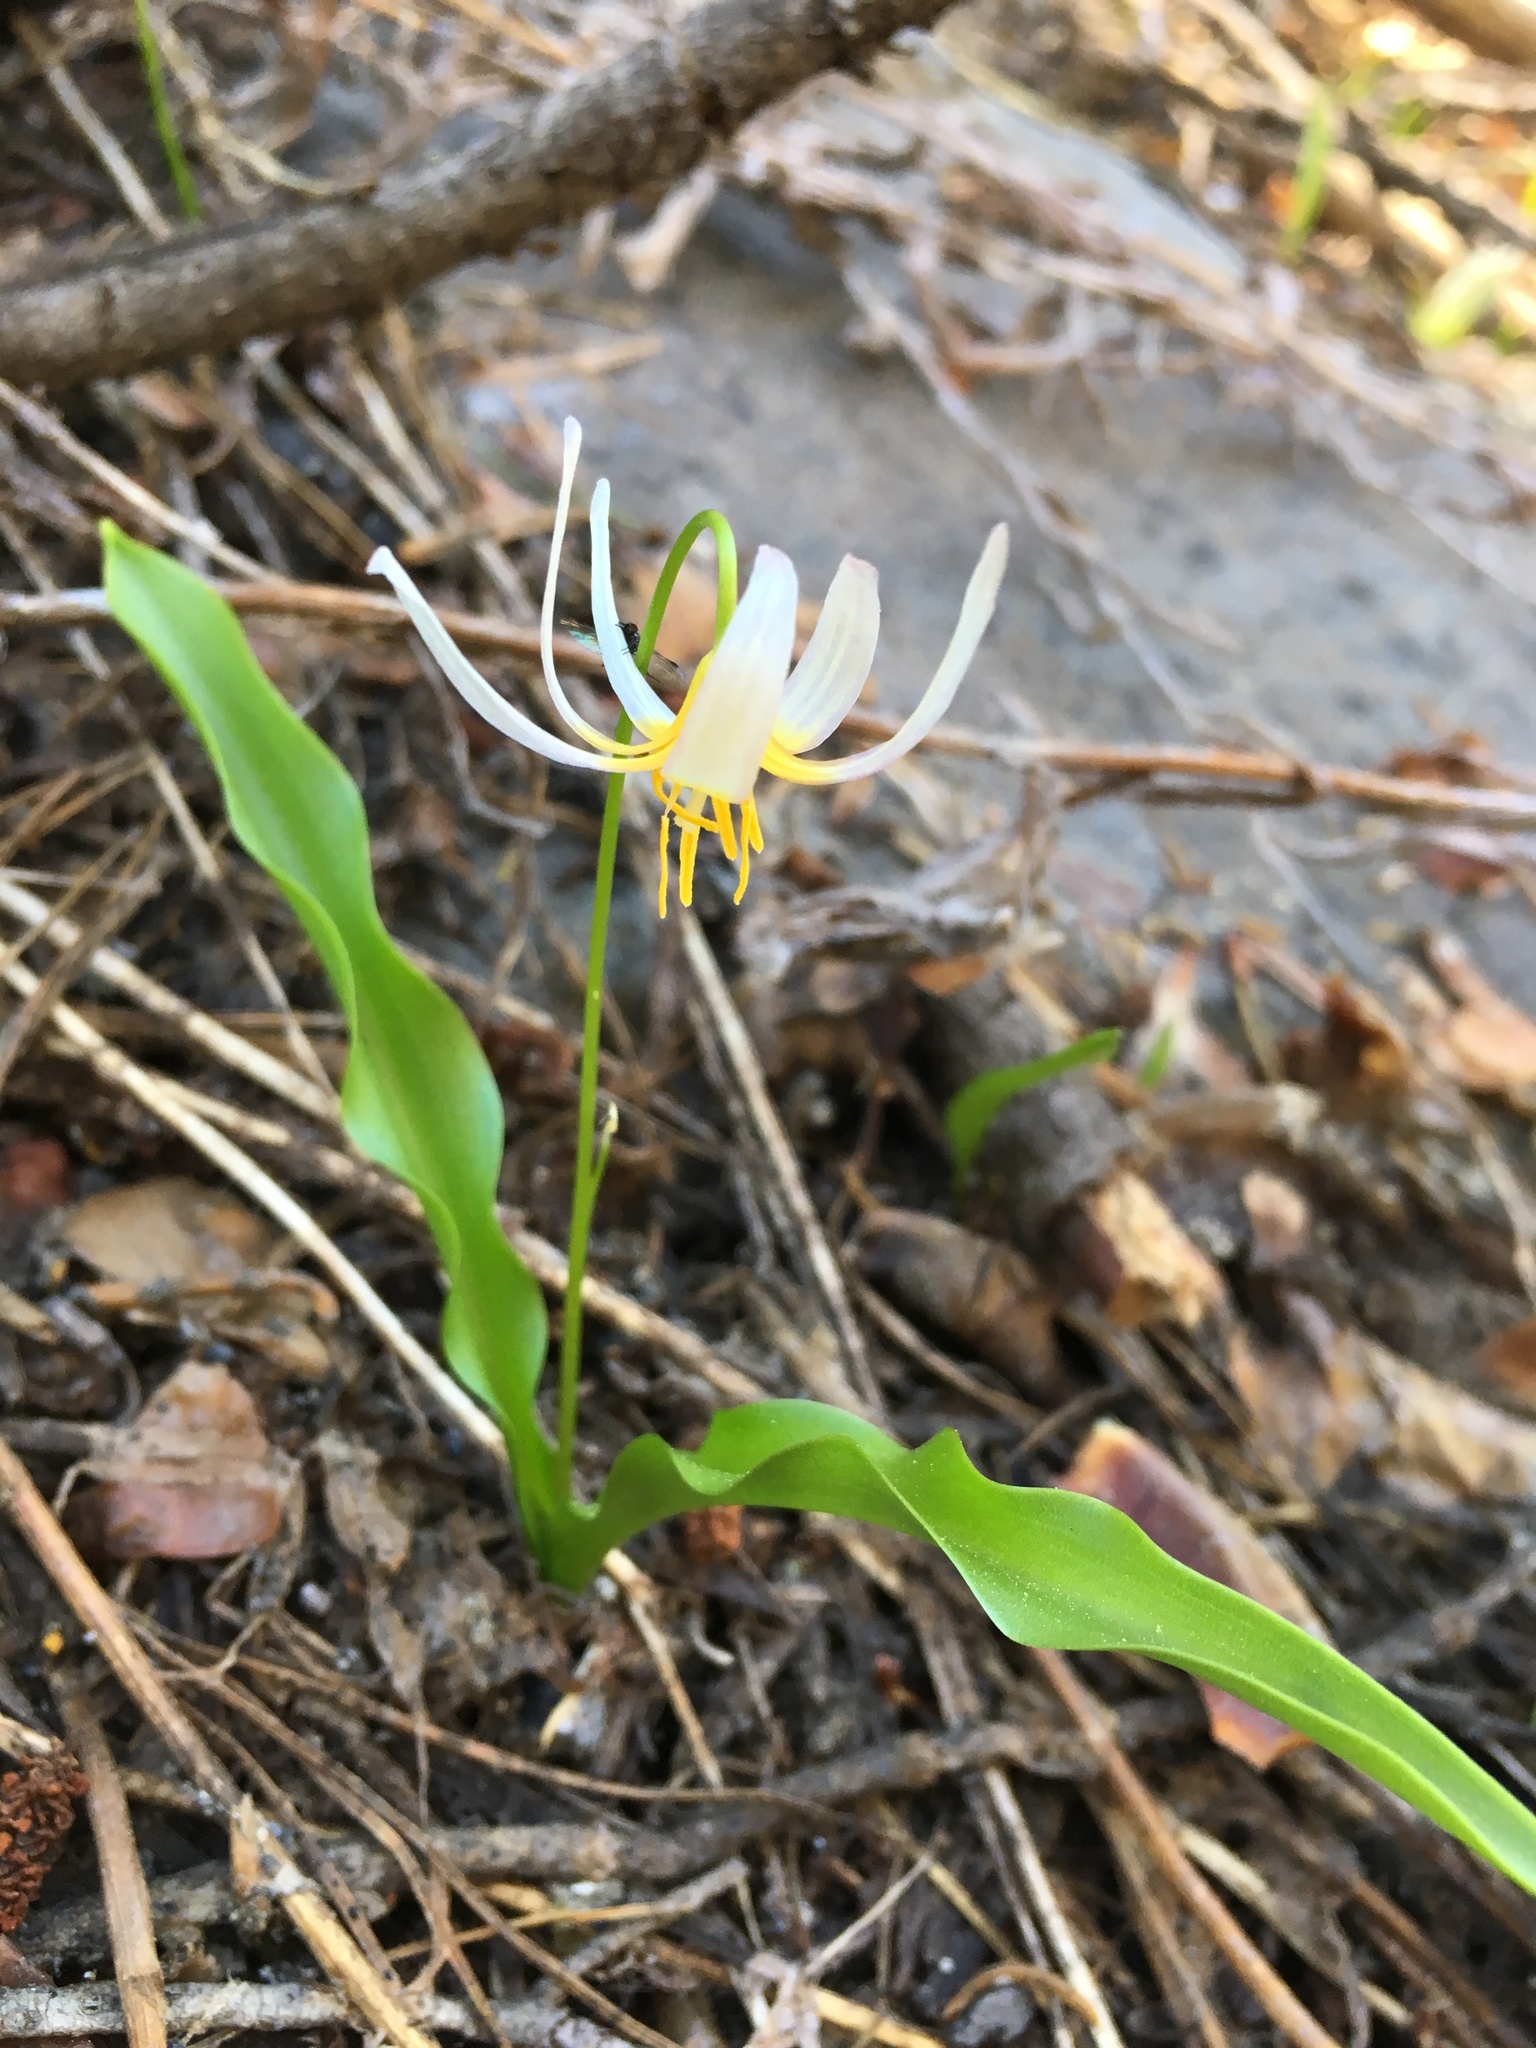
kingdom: Plantae
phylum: Tracheophyta
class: Liliopsida
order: Liliales
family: Liliaceae
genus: Erythronium
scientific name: Erythronium purpurascens
